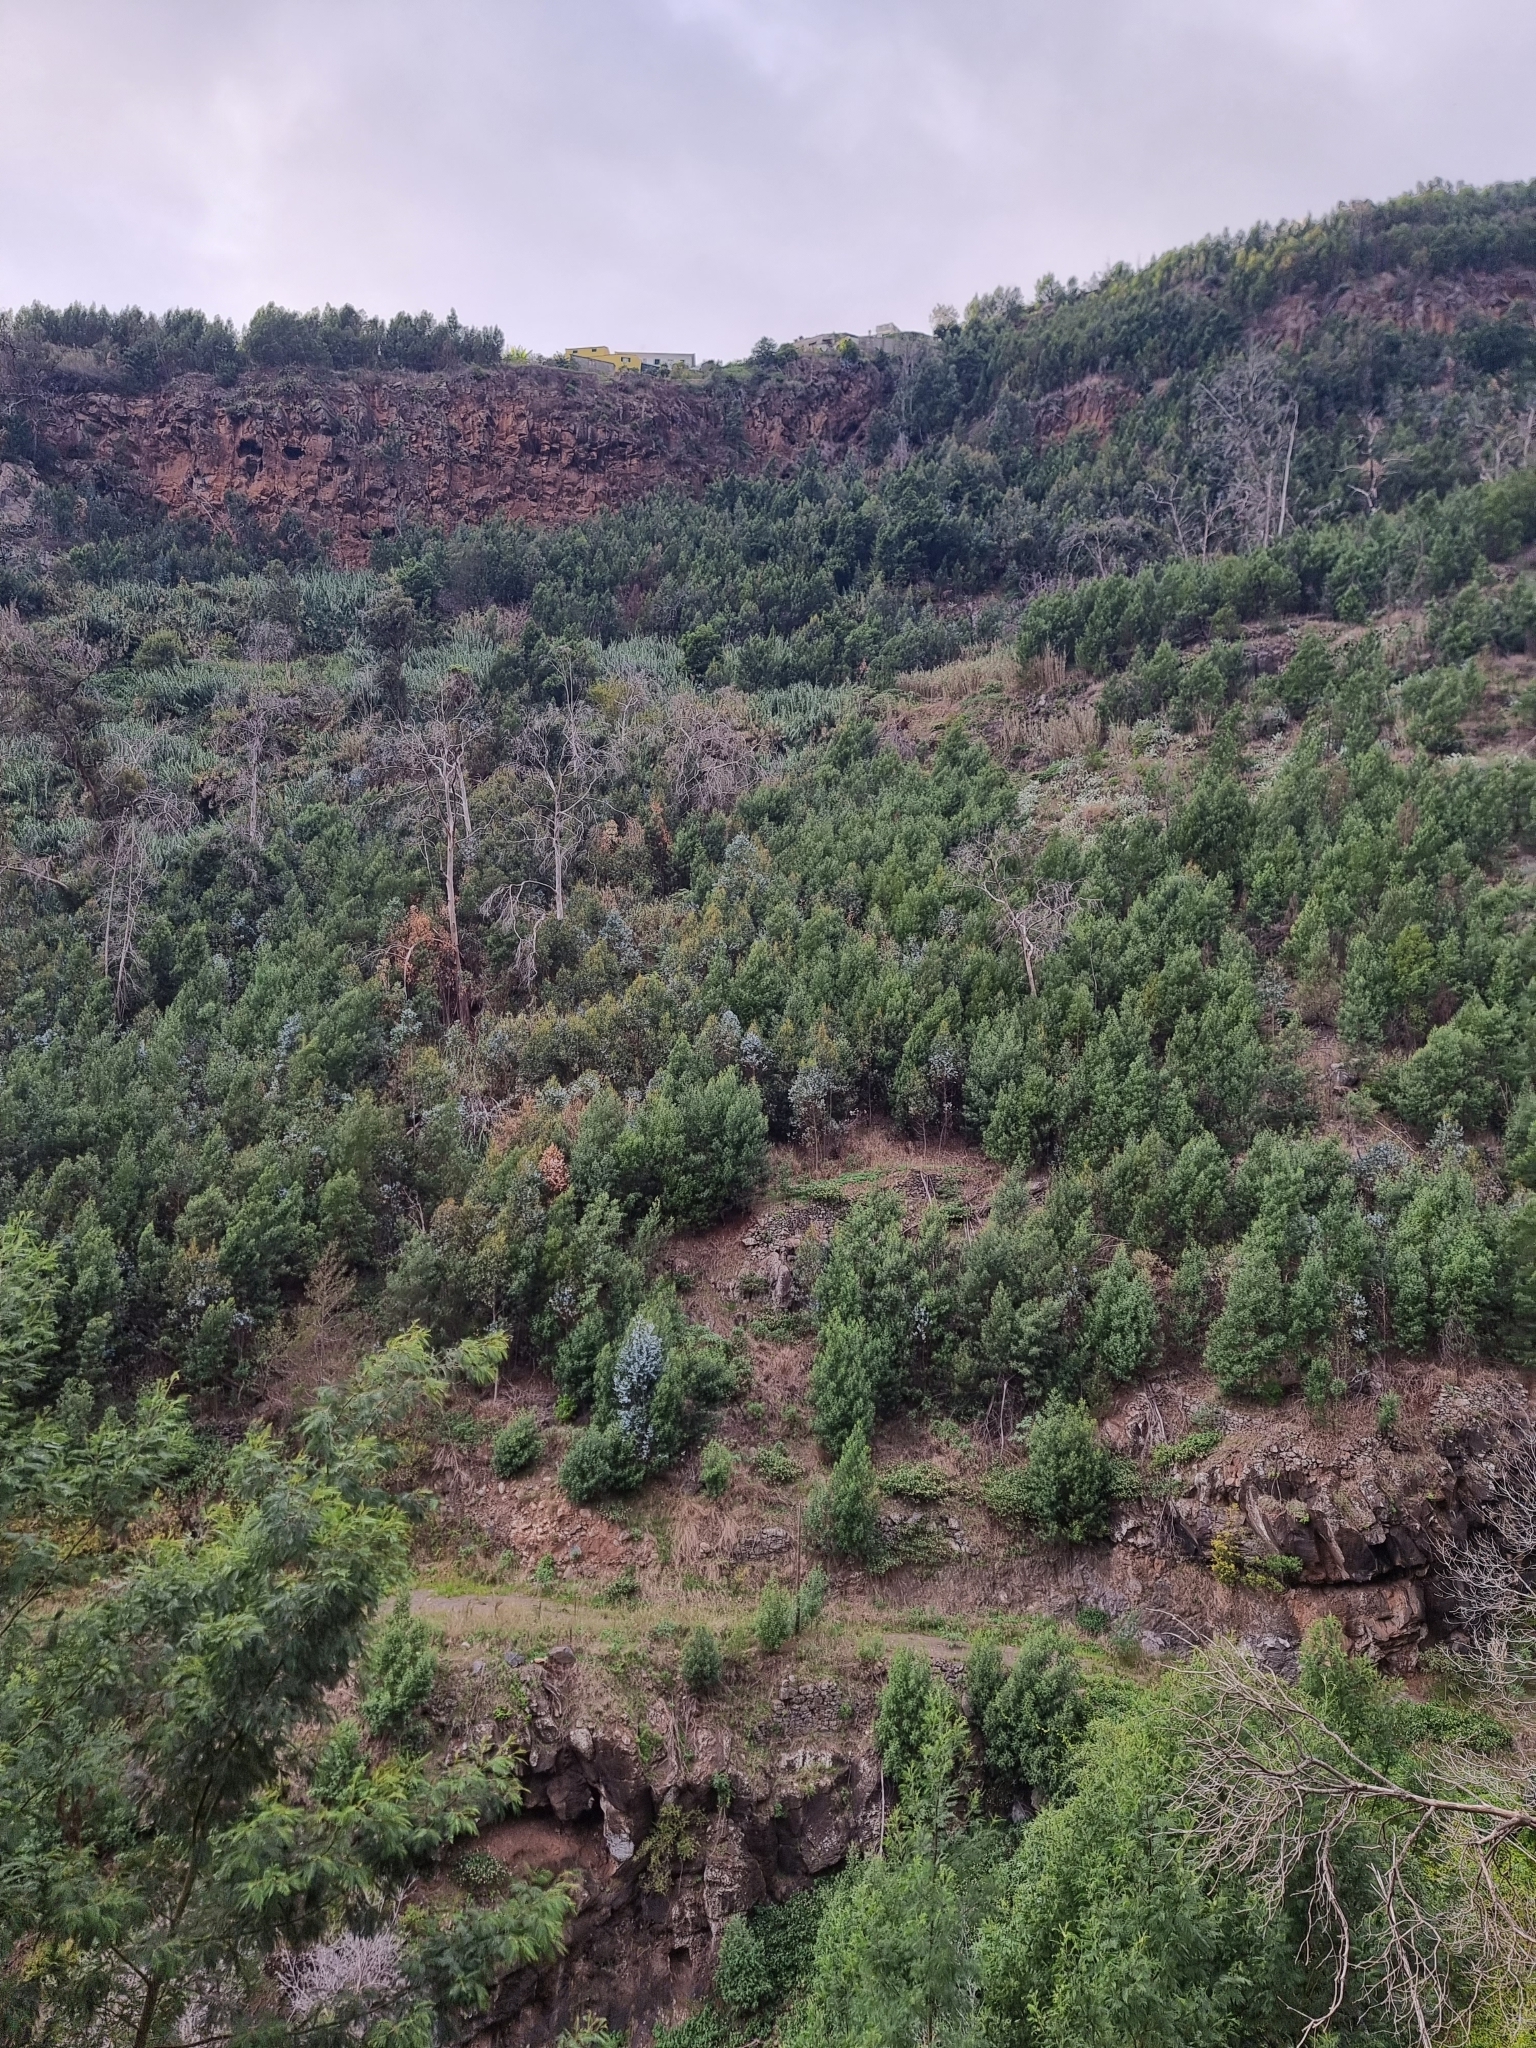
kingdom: Plantae
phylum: Tracheophyta
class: Magnoliopsida
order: Fabales
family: Fabaceae
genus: Acacia
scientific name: Acacia mearnsii
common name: Black wattle
